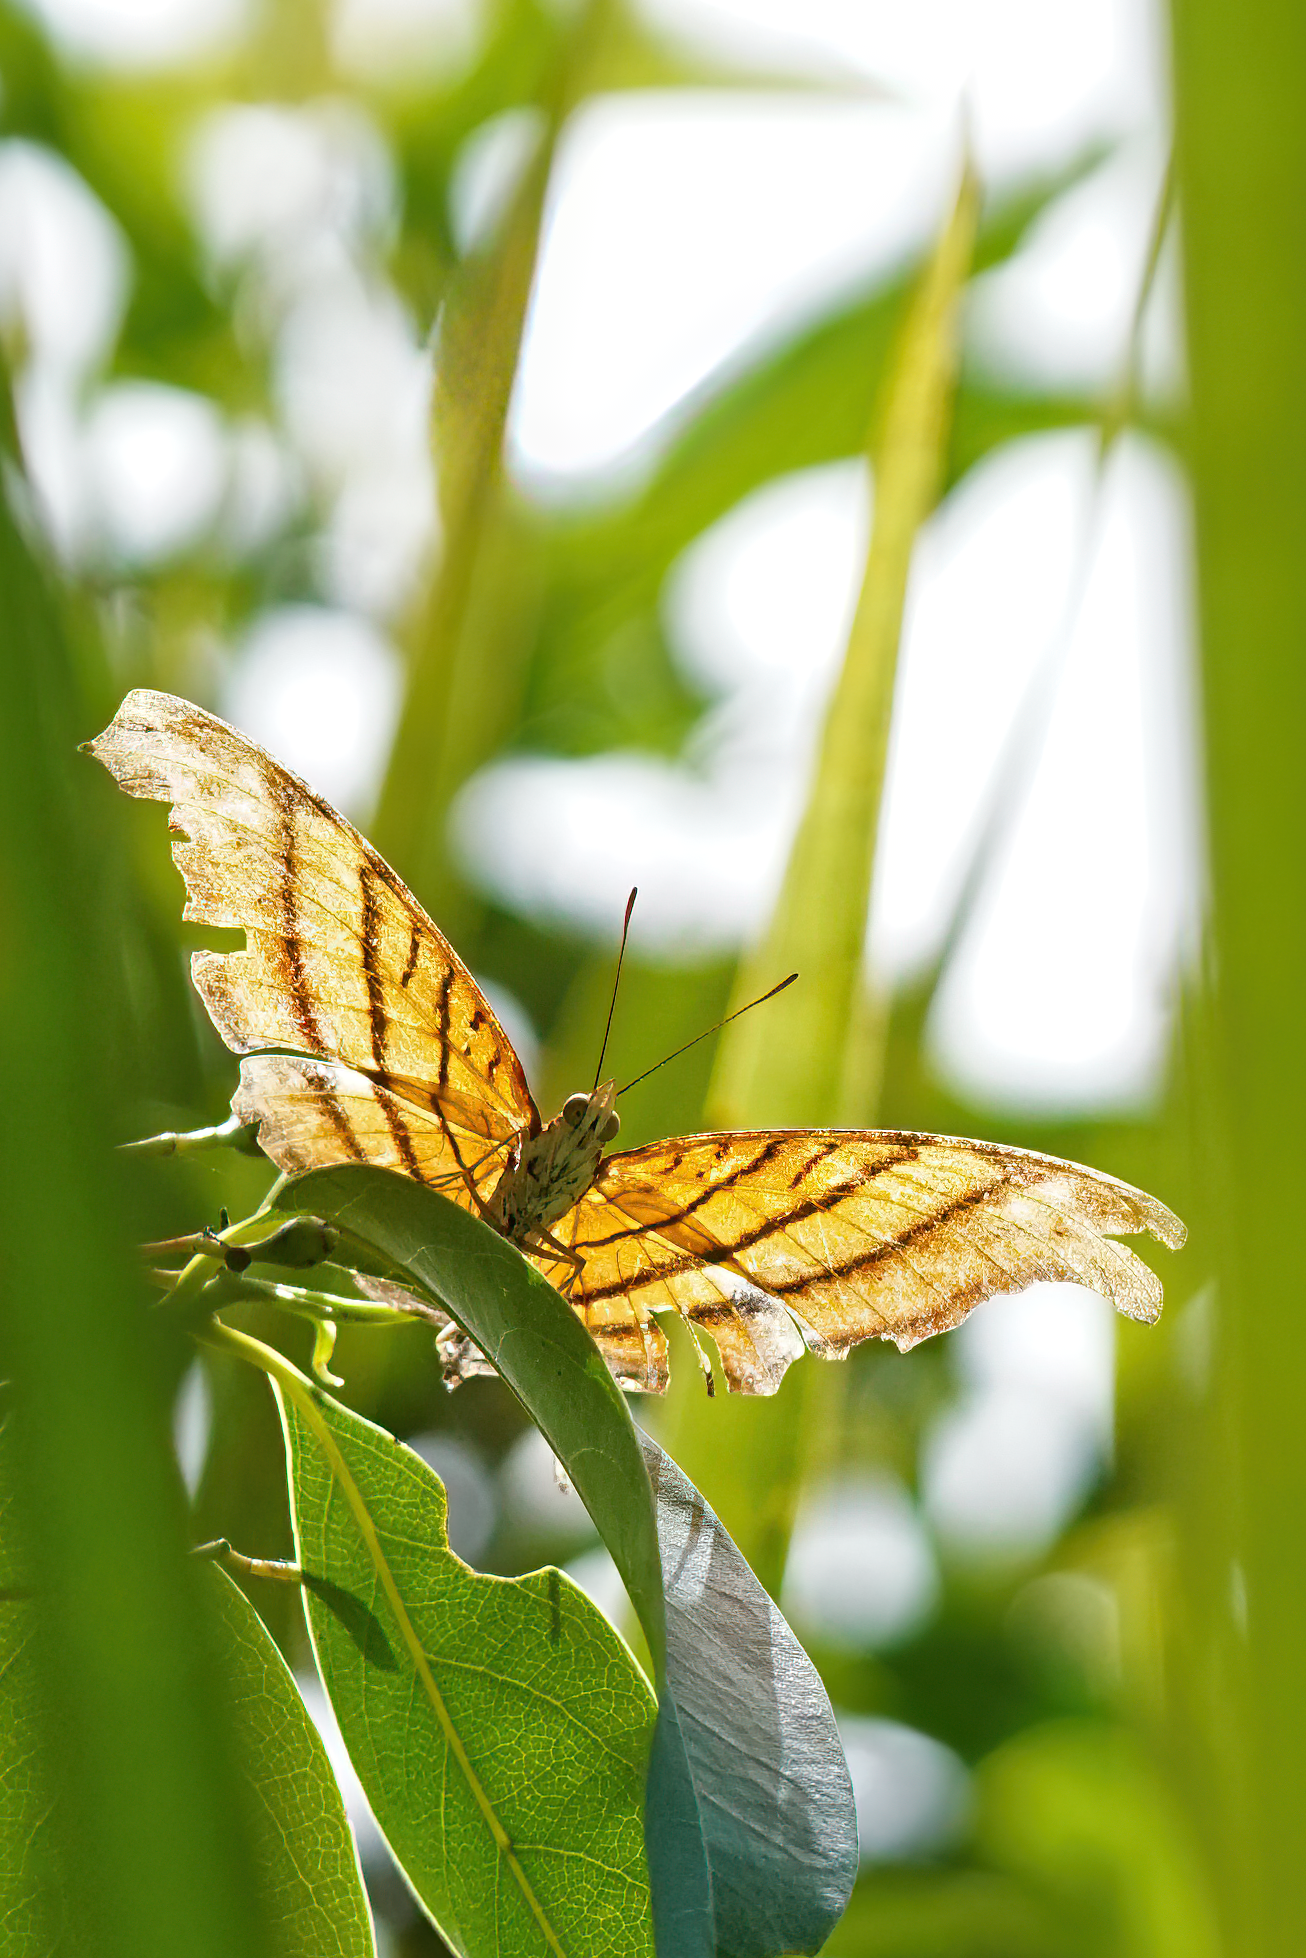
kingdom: Animalia
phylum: Arthropoda
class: Insecta
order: Lepidoptera
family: Nymphalidae
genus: Marpesia
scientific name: Marpesia petreus
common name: Red dagger wing
